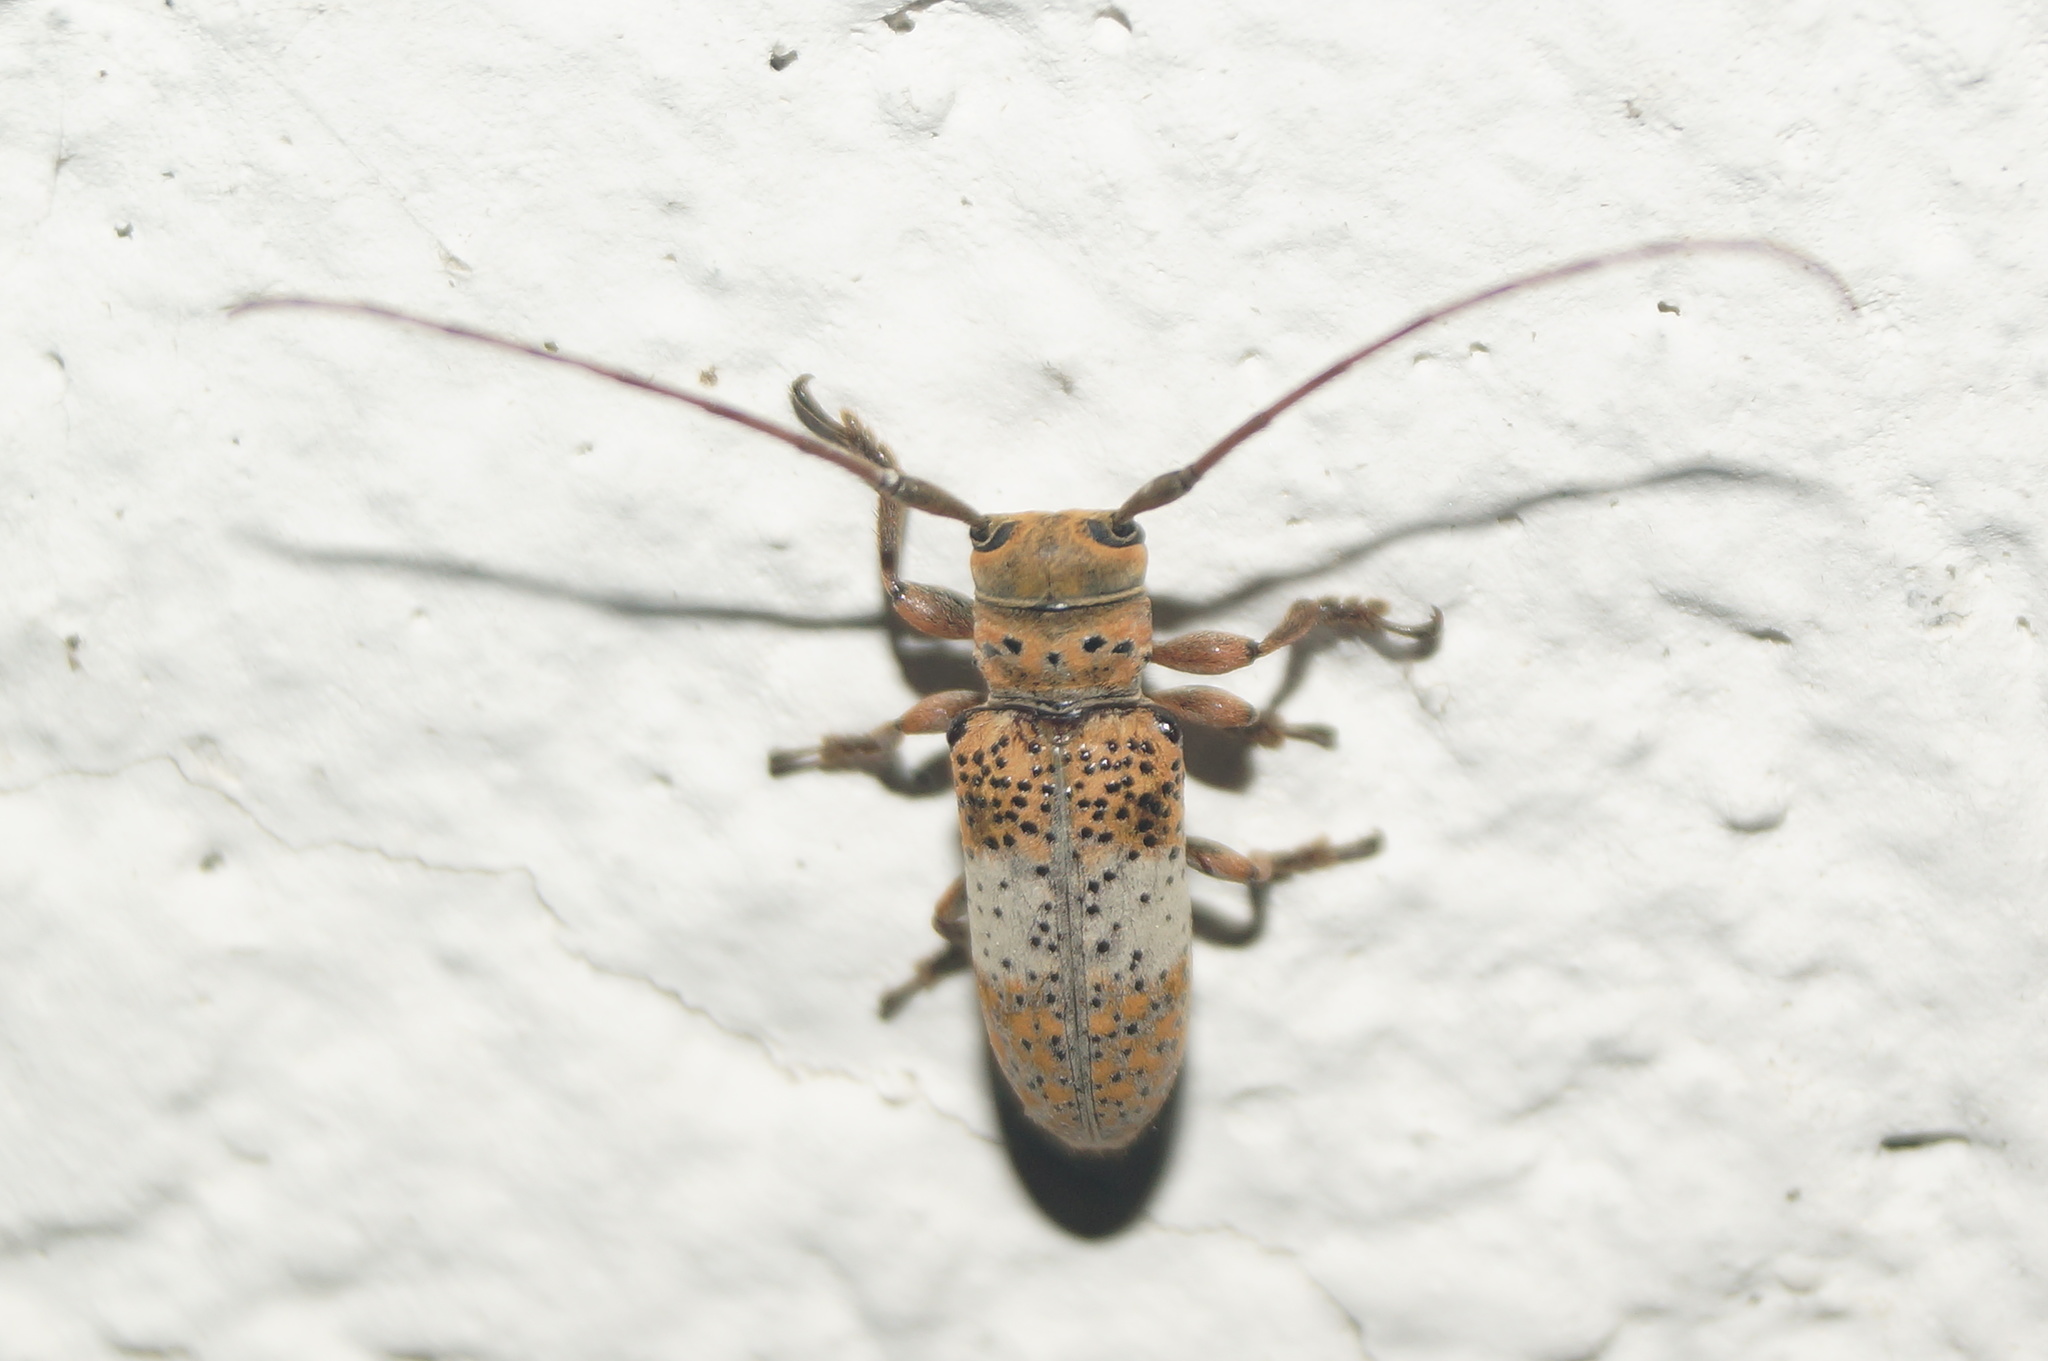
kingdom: Animalia
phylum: Arthropoda
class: Insecta
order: Coleoptera
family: Cerambycidae
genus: Oncideres
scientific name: Oncideres pallifasciata
